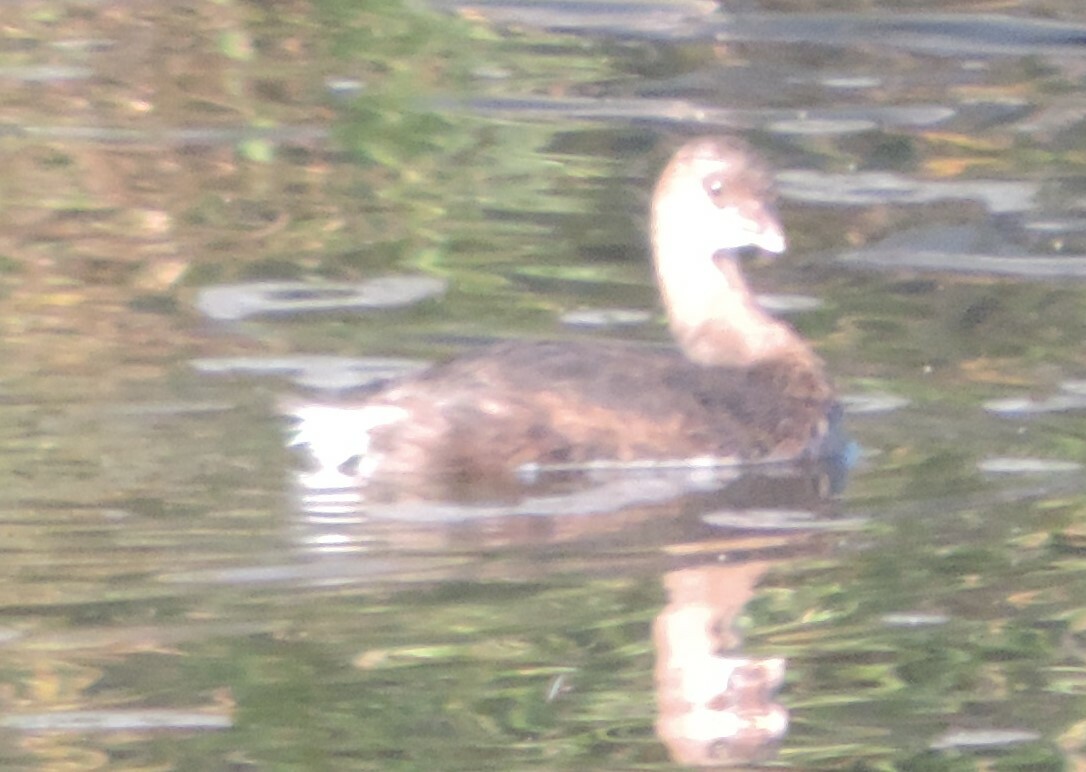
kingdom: Animalia
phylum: Chordata
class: Aves
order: Podicipediformes
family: Podicipedidae
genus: Podilymbus
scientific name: Podilymbus podiceps
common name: Pied-billed grebe
